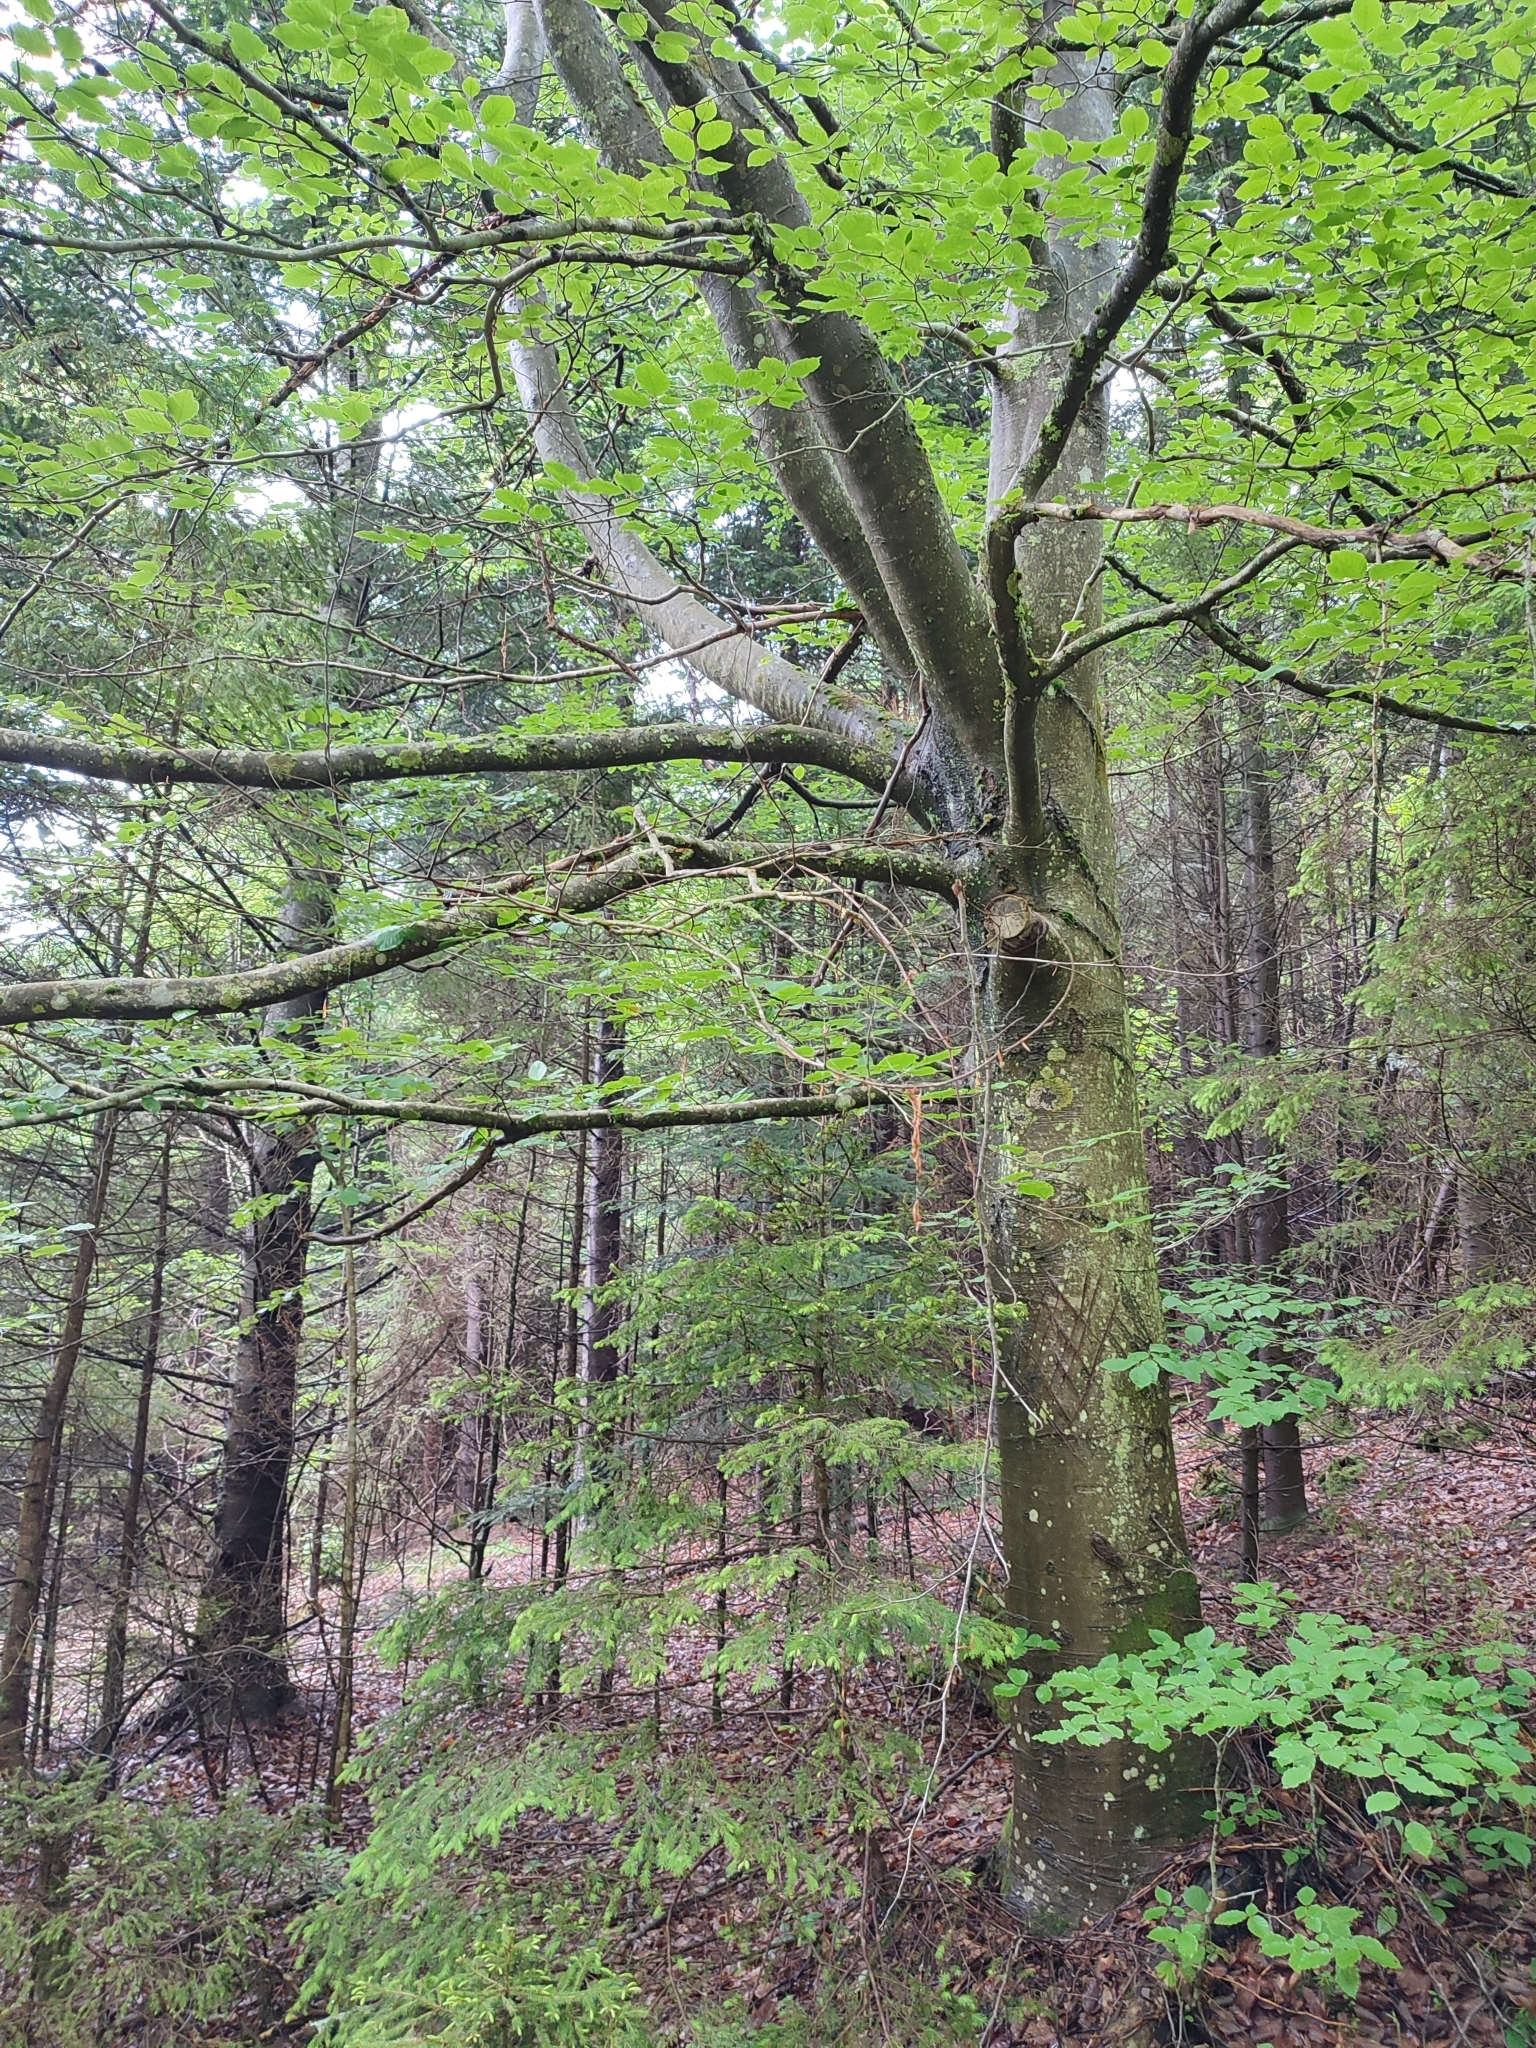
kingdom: Plantae
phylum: Tracheophyta
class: Magnoliopsida
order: Fagales
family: Fagaceae
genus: Fagus
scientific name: Fagus sylvatica
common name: Beech
